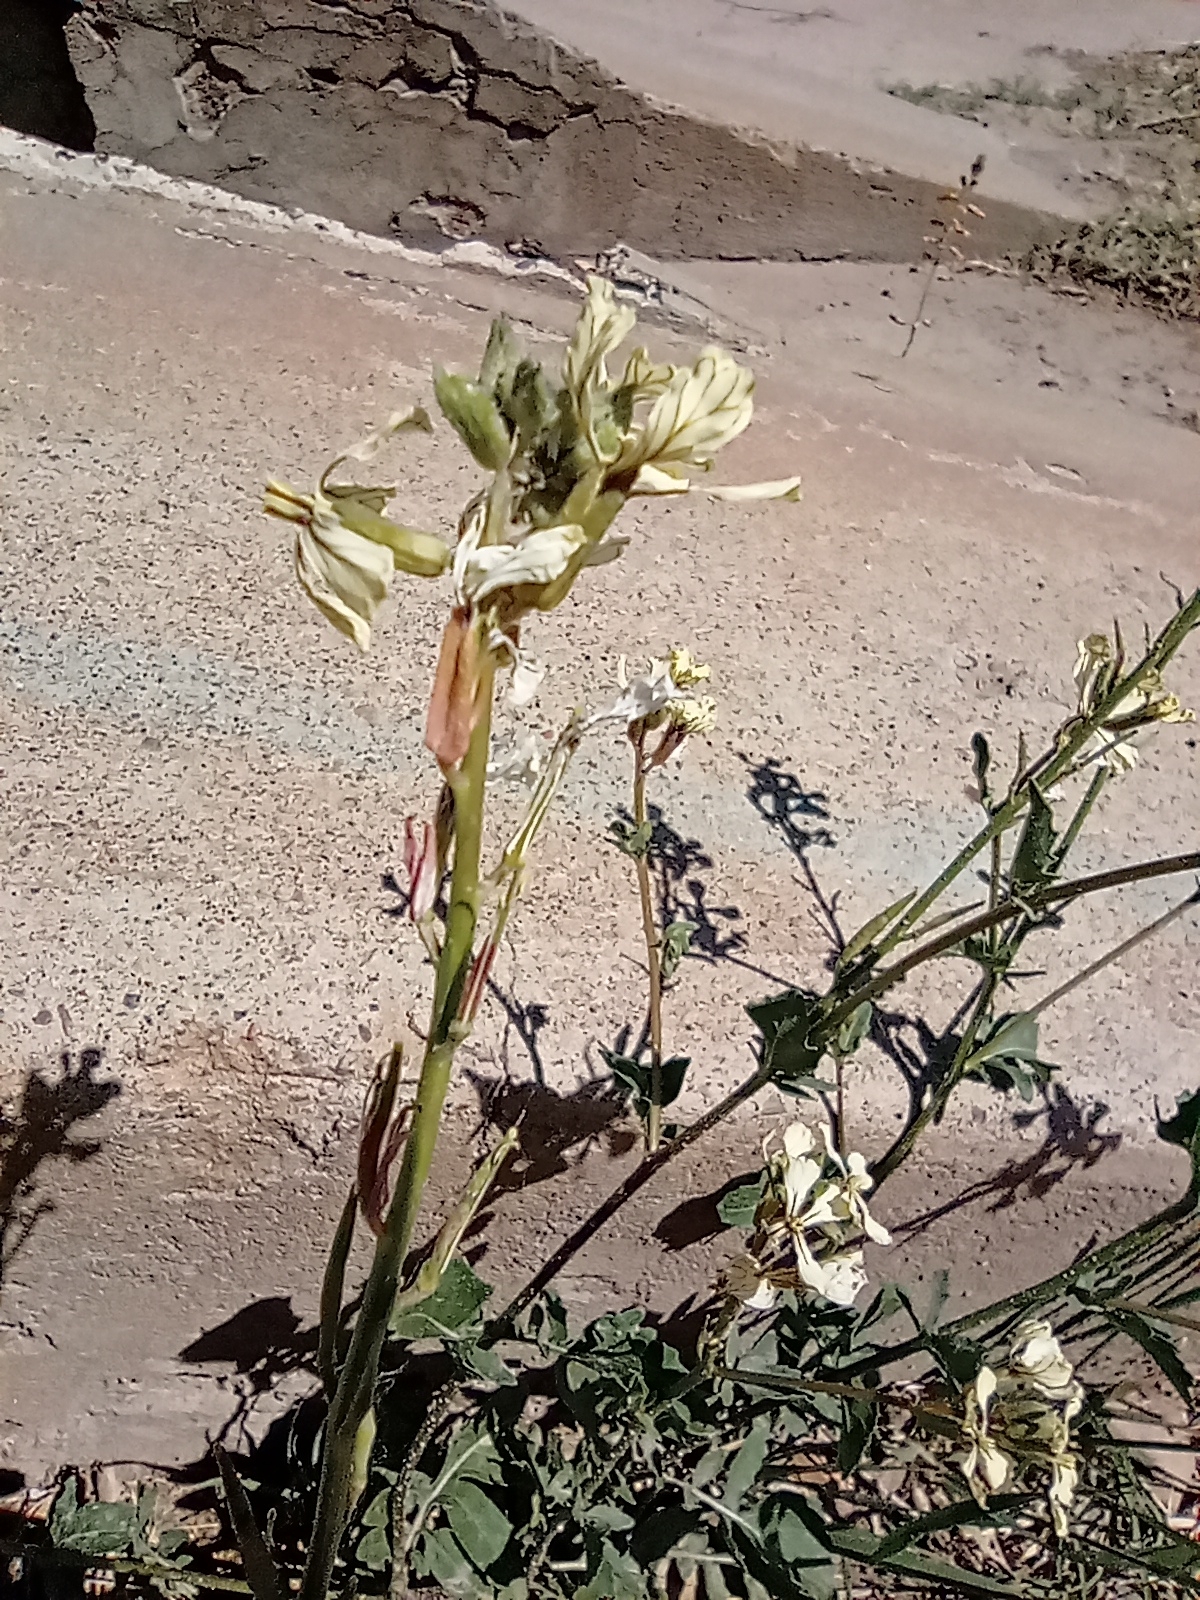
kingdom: Plantae
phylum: Tracheophyta
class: Magnoliopsida
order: Brassicales
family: Brassicaceae
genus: Eruca
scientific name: Eruca vesicaria
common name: Garden rocket
